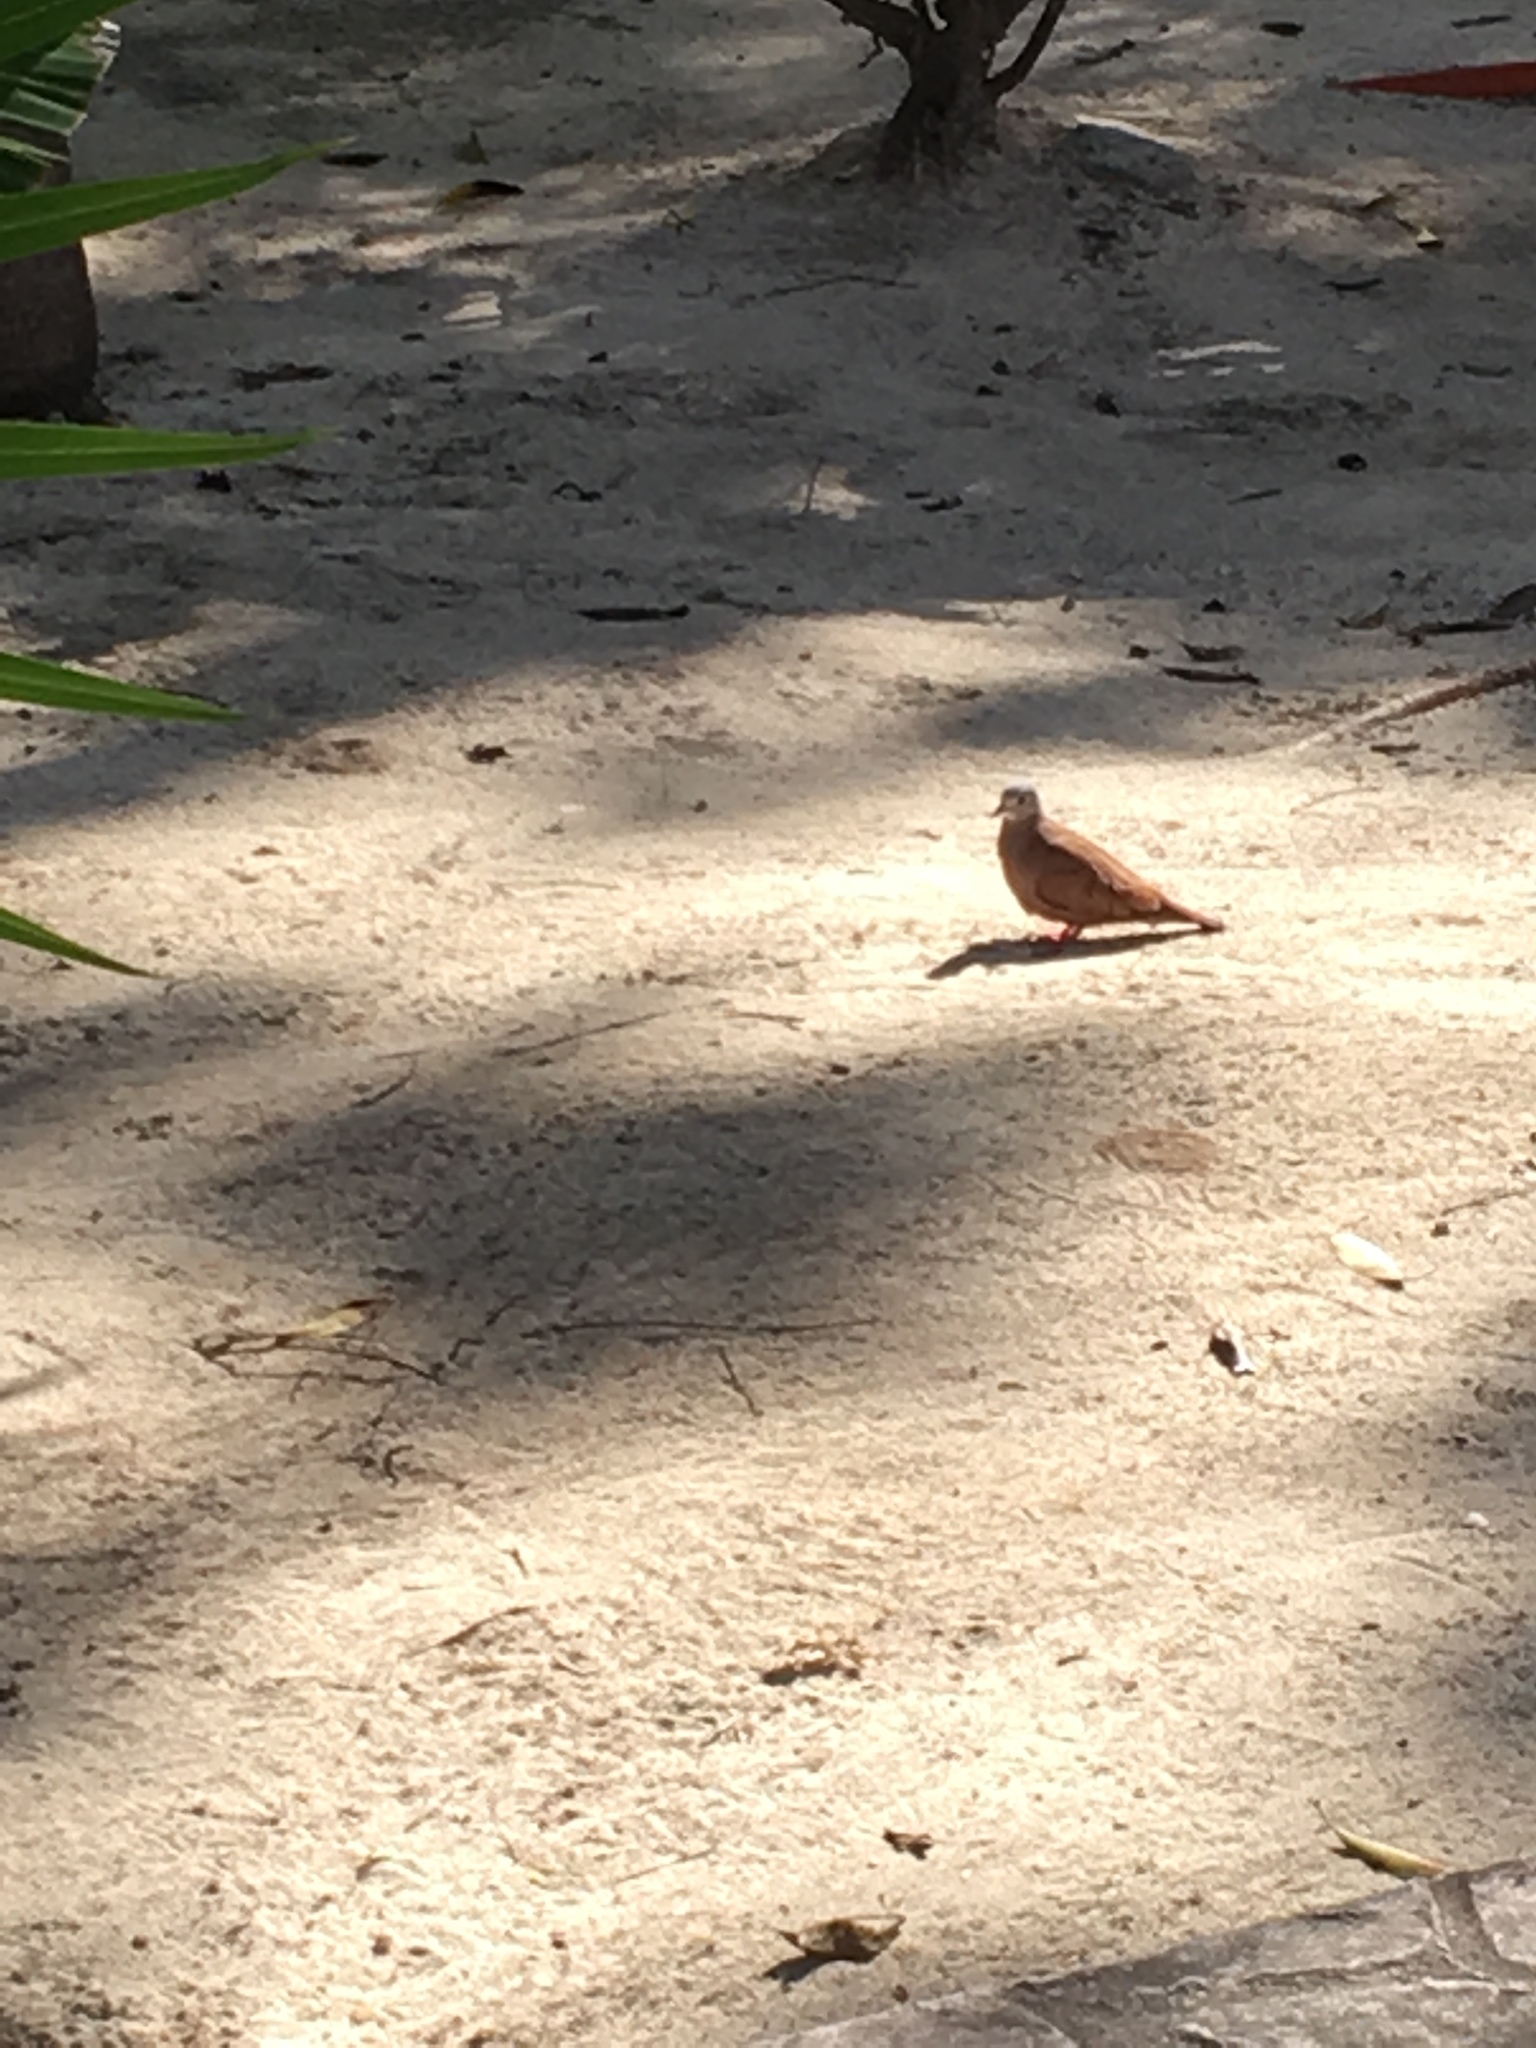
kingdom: Animalia
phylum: Chordata
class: Aves
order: Columbiformes
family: Columbidae
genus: Columbina
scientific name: Columbina talpacoti
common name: Ruddy ground dove
